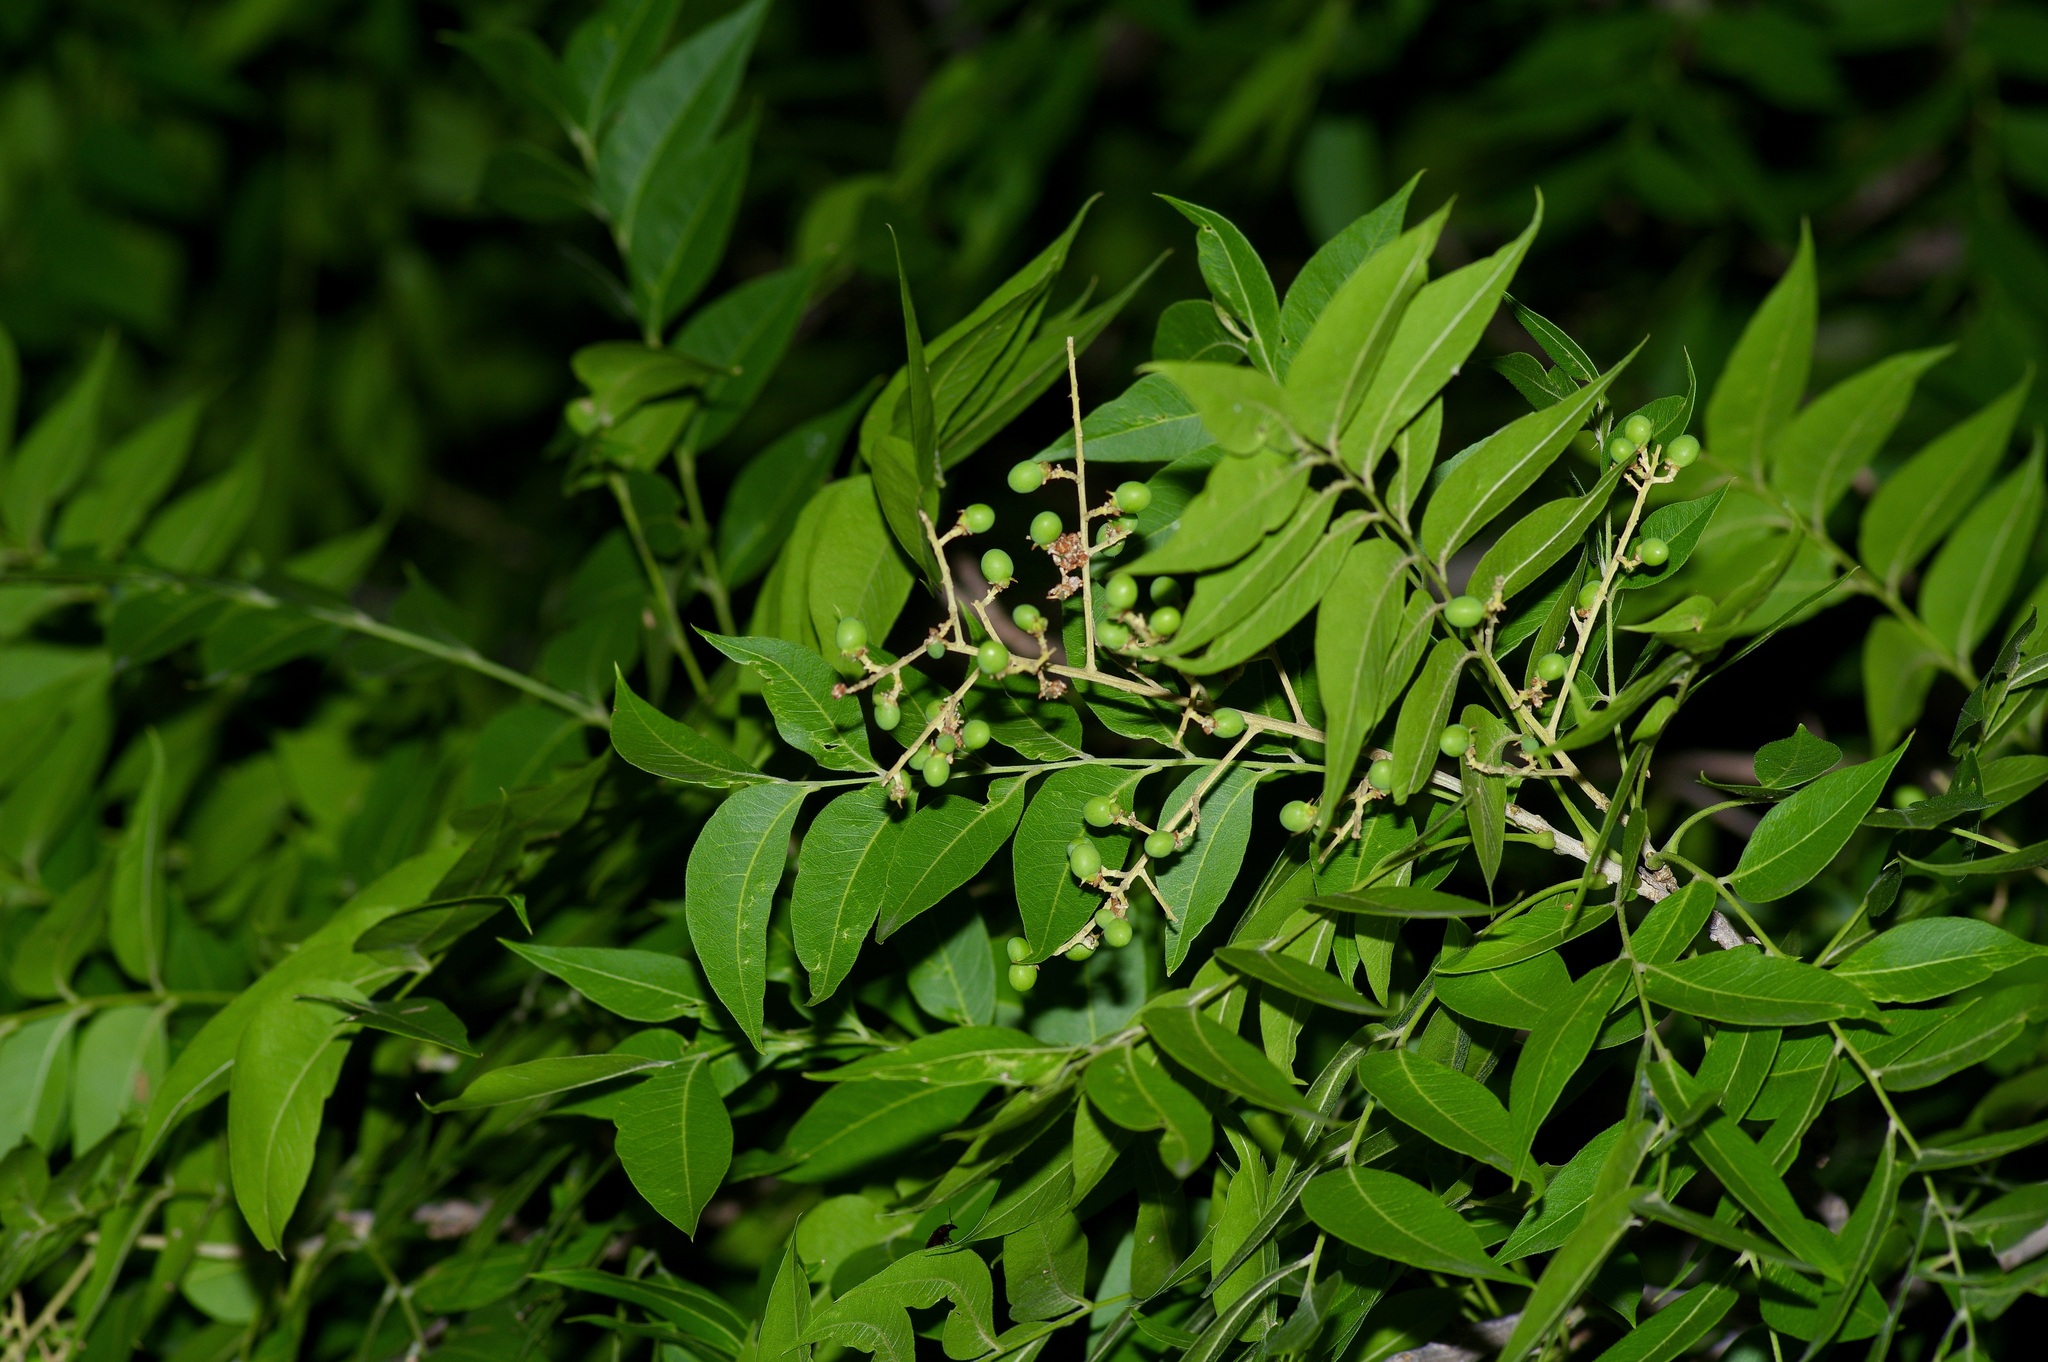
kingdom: Plantae
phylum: Tracheophyta
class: Magnoliopsida
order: Sapindales
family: Sapindaceae
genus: Sapindus
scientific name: Sapindus drummondii
